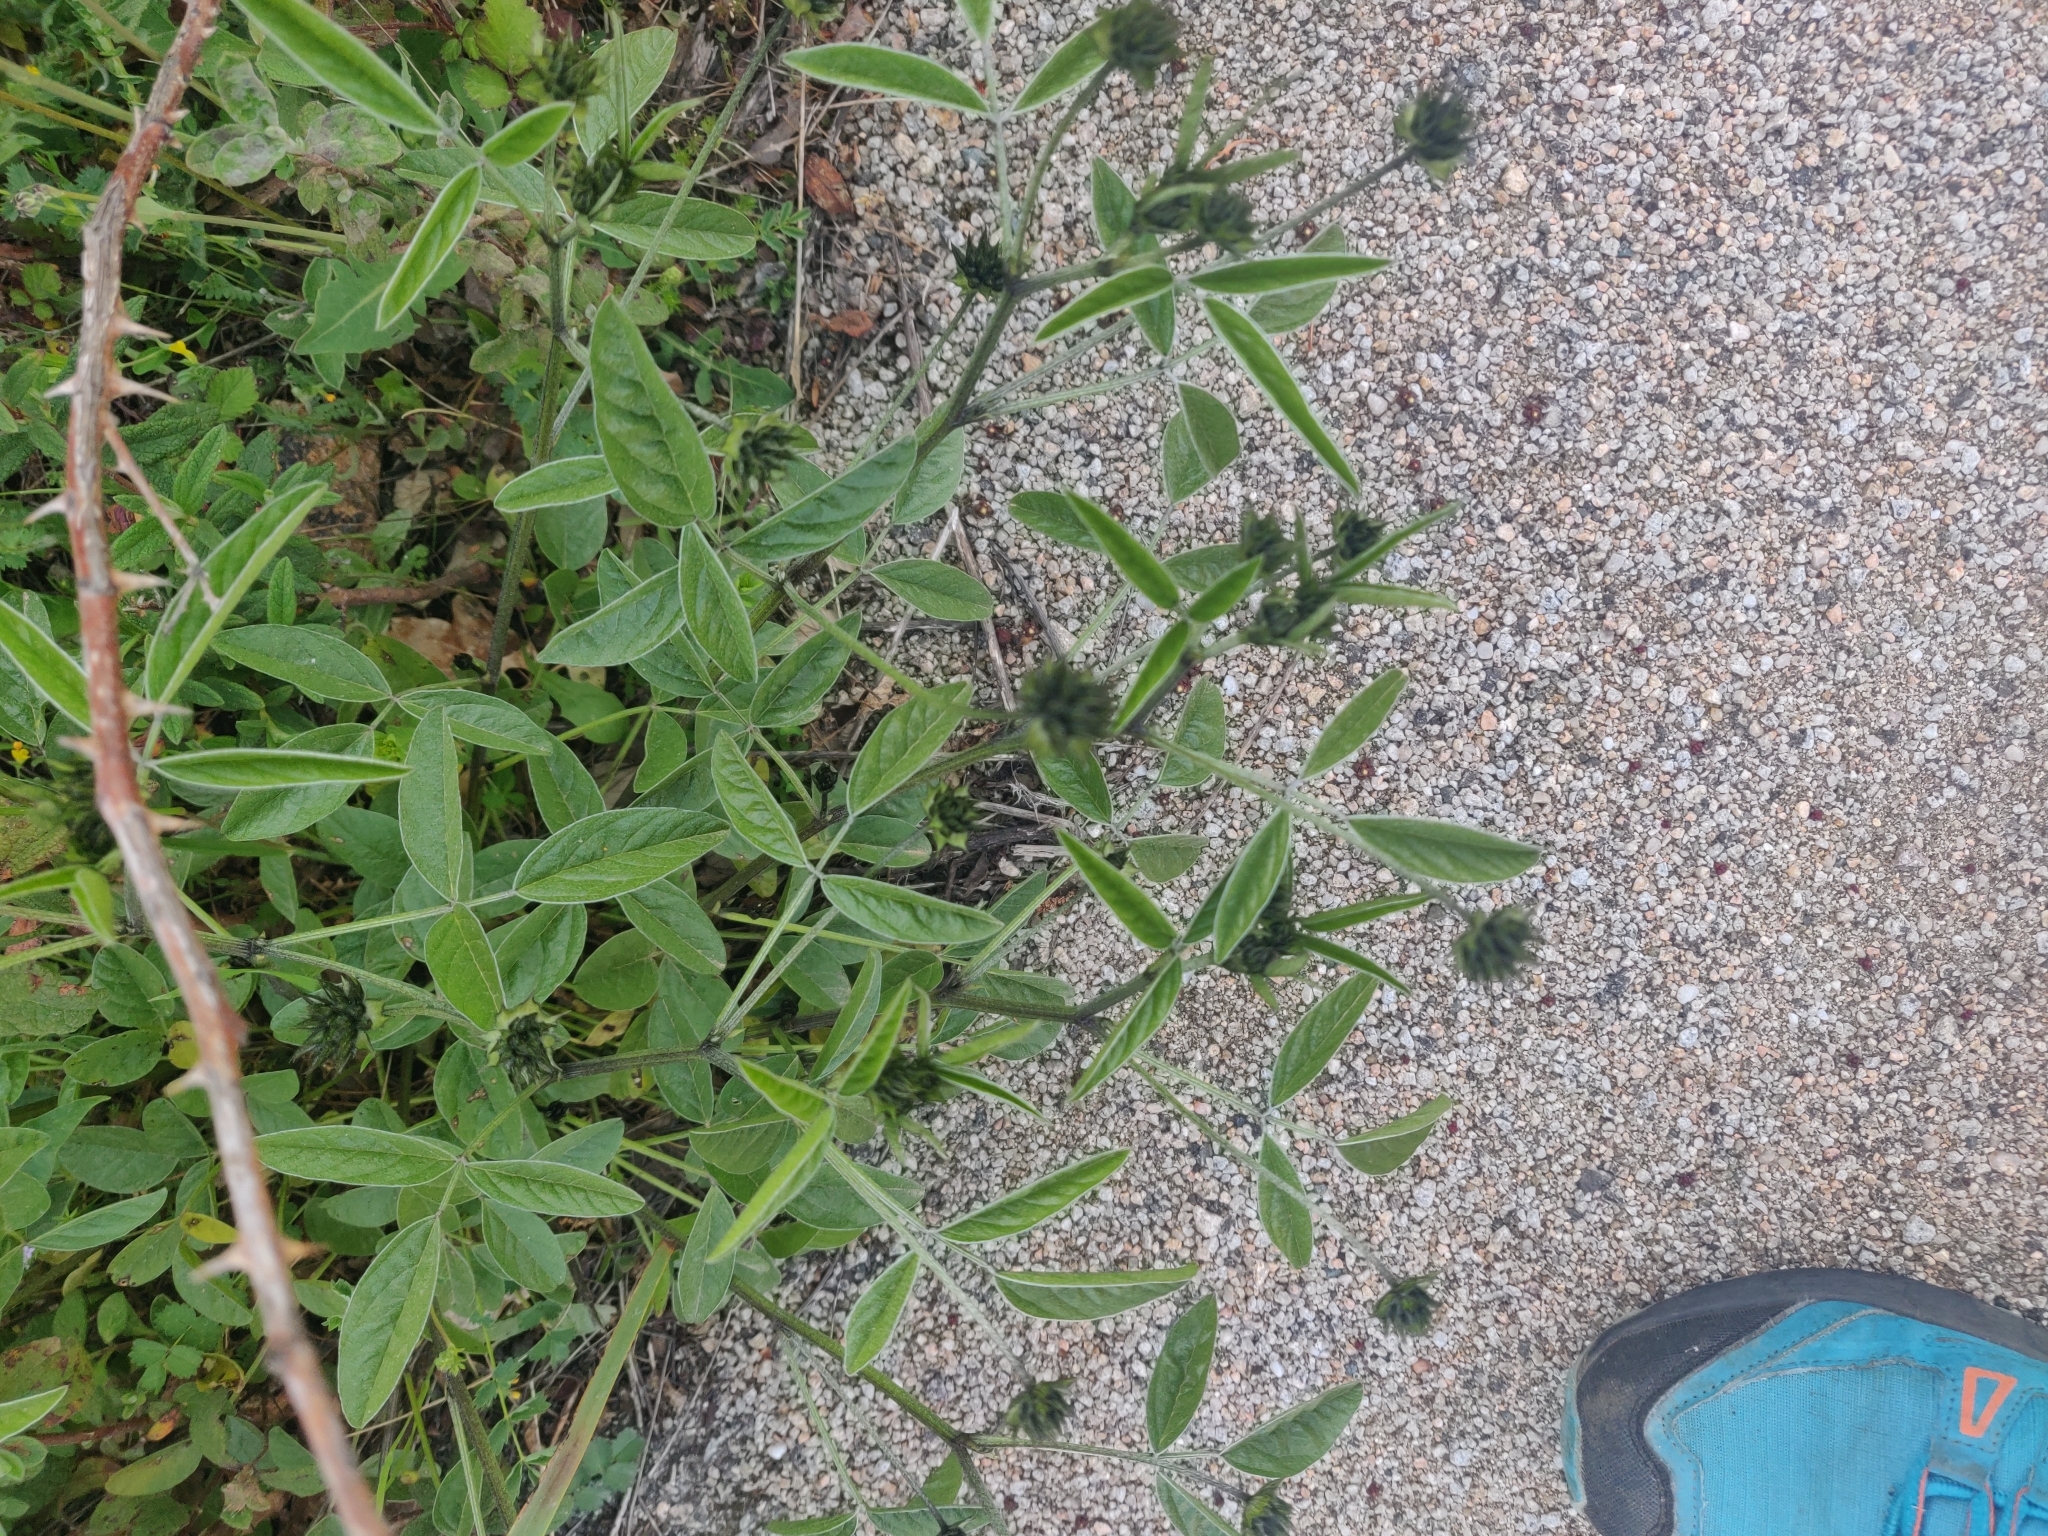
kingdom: Plantae
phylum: Tracheophyta
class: Magnoliopsida
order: Fabales
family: Fabaceae
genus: Bituminaria
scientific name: Bituminaria bituminosa
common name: Arabian pea
